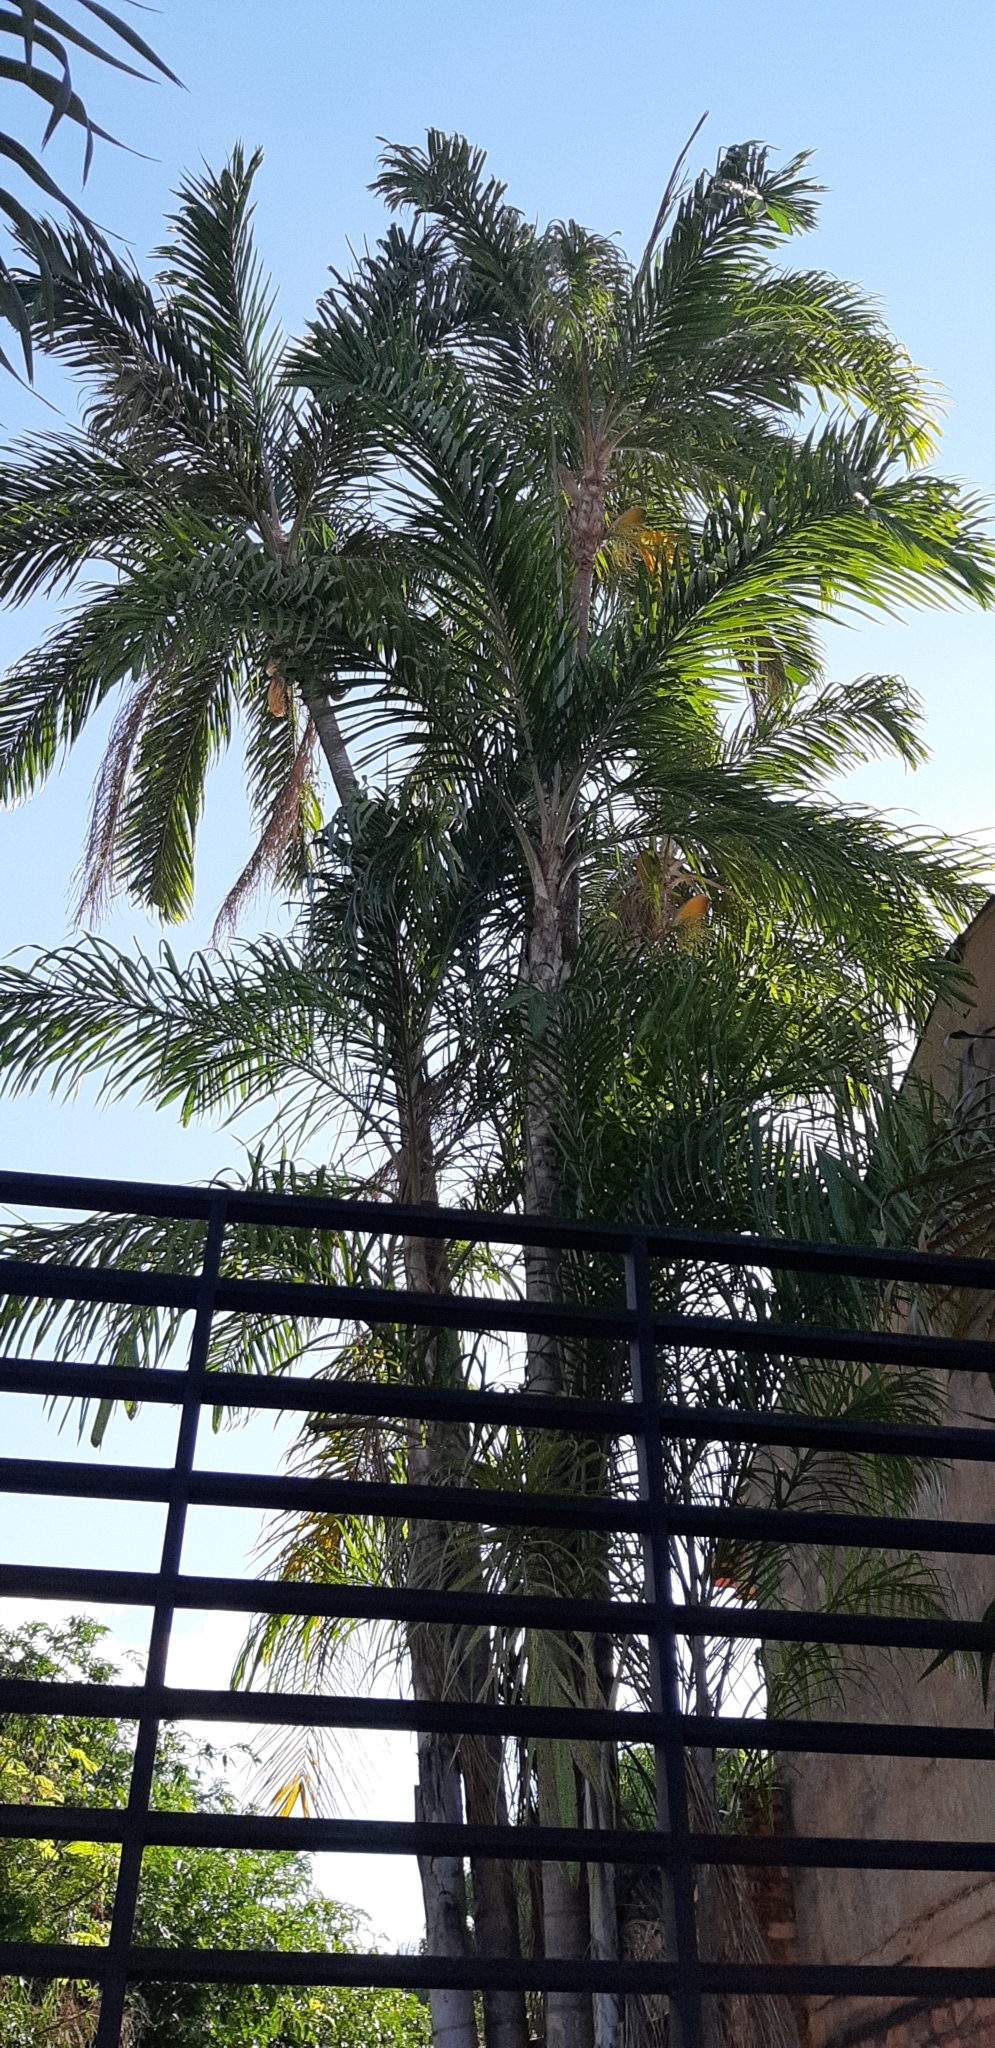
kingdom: Plantae
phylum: Tracheophyta
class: Liliopsida
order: Arecales
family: Arecaceae
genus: Bactris
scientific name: Bactris gasipaes
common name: Peach palm
